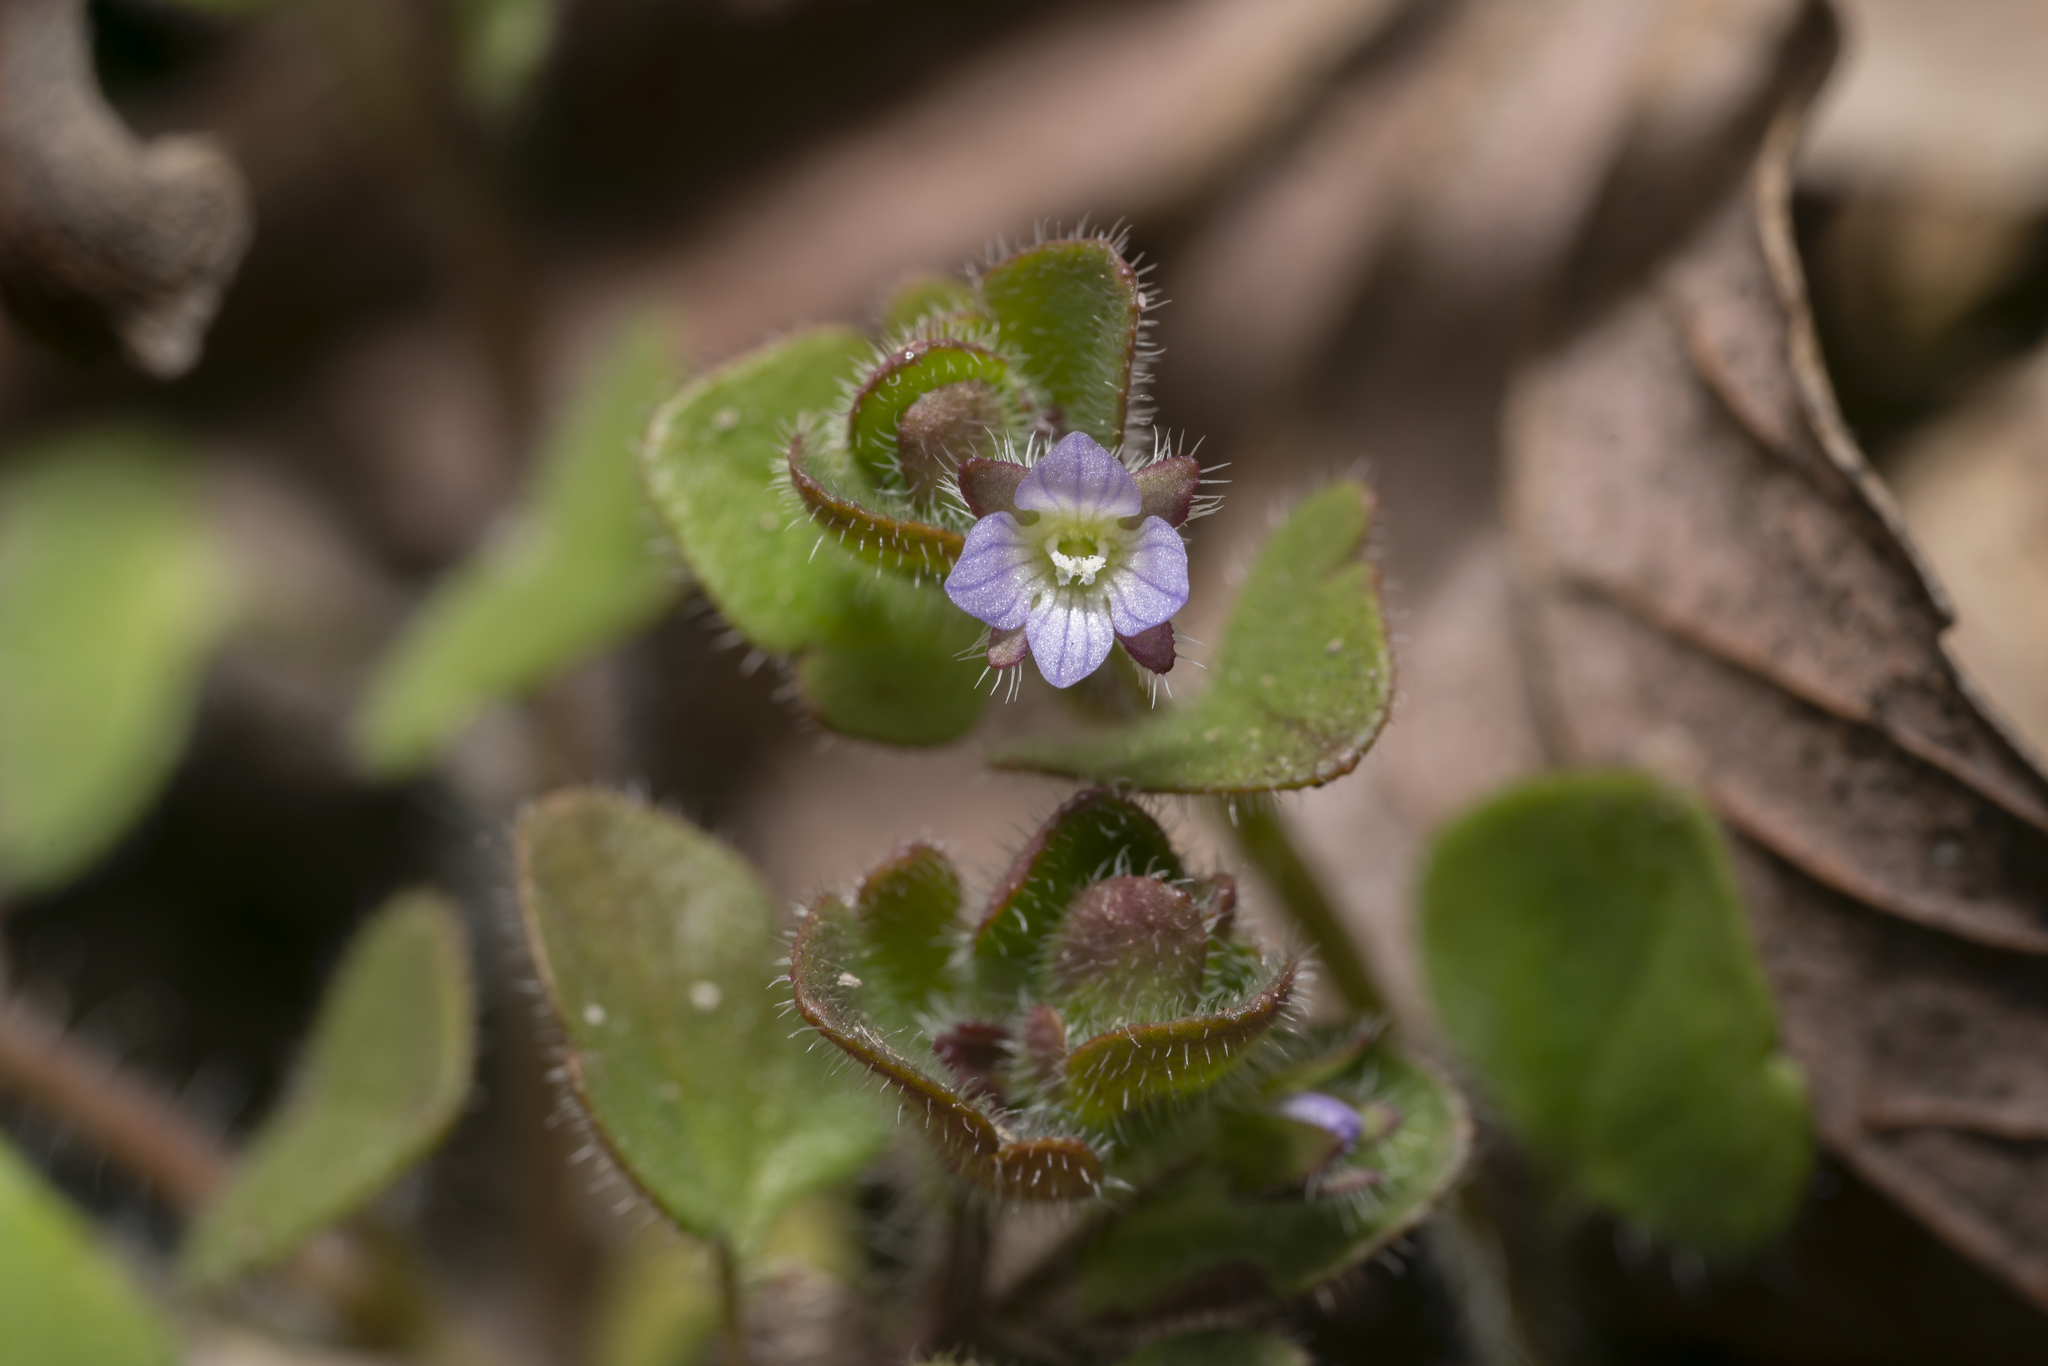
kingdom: Plantae
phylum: Tracheophyta
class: Magnoliopsida
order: Lamiales
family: Plantaginaceae
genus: Veronica
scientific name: Veronica hederifolia
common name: Ivy-leaved speedwell
